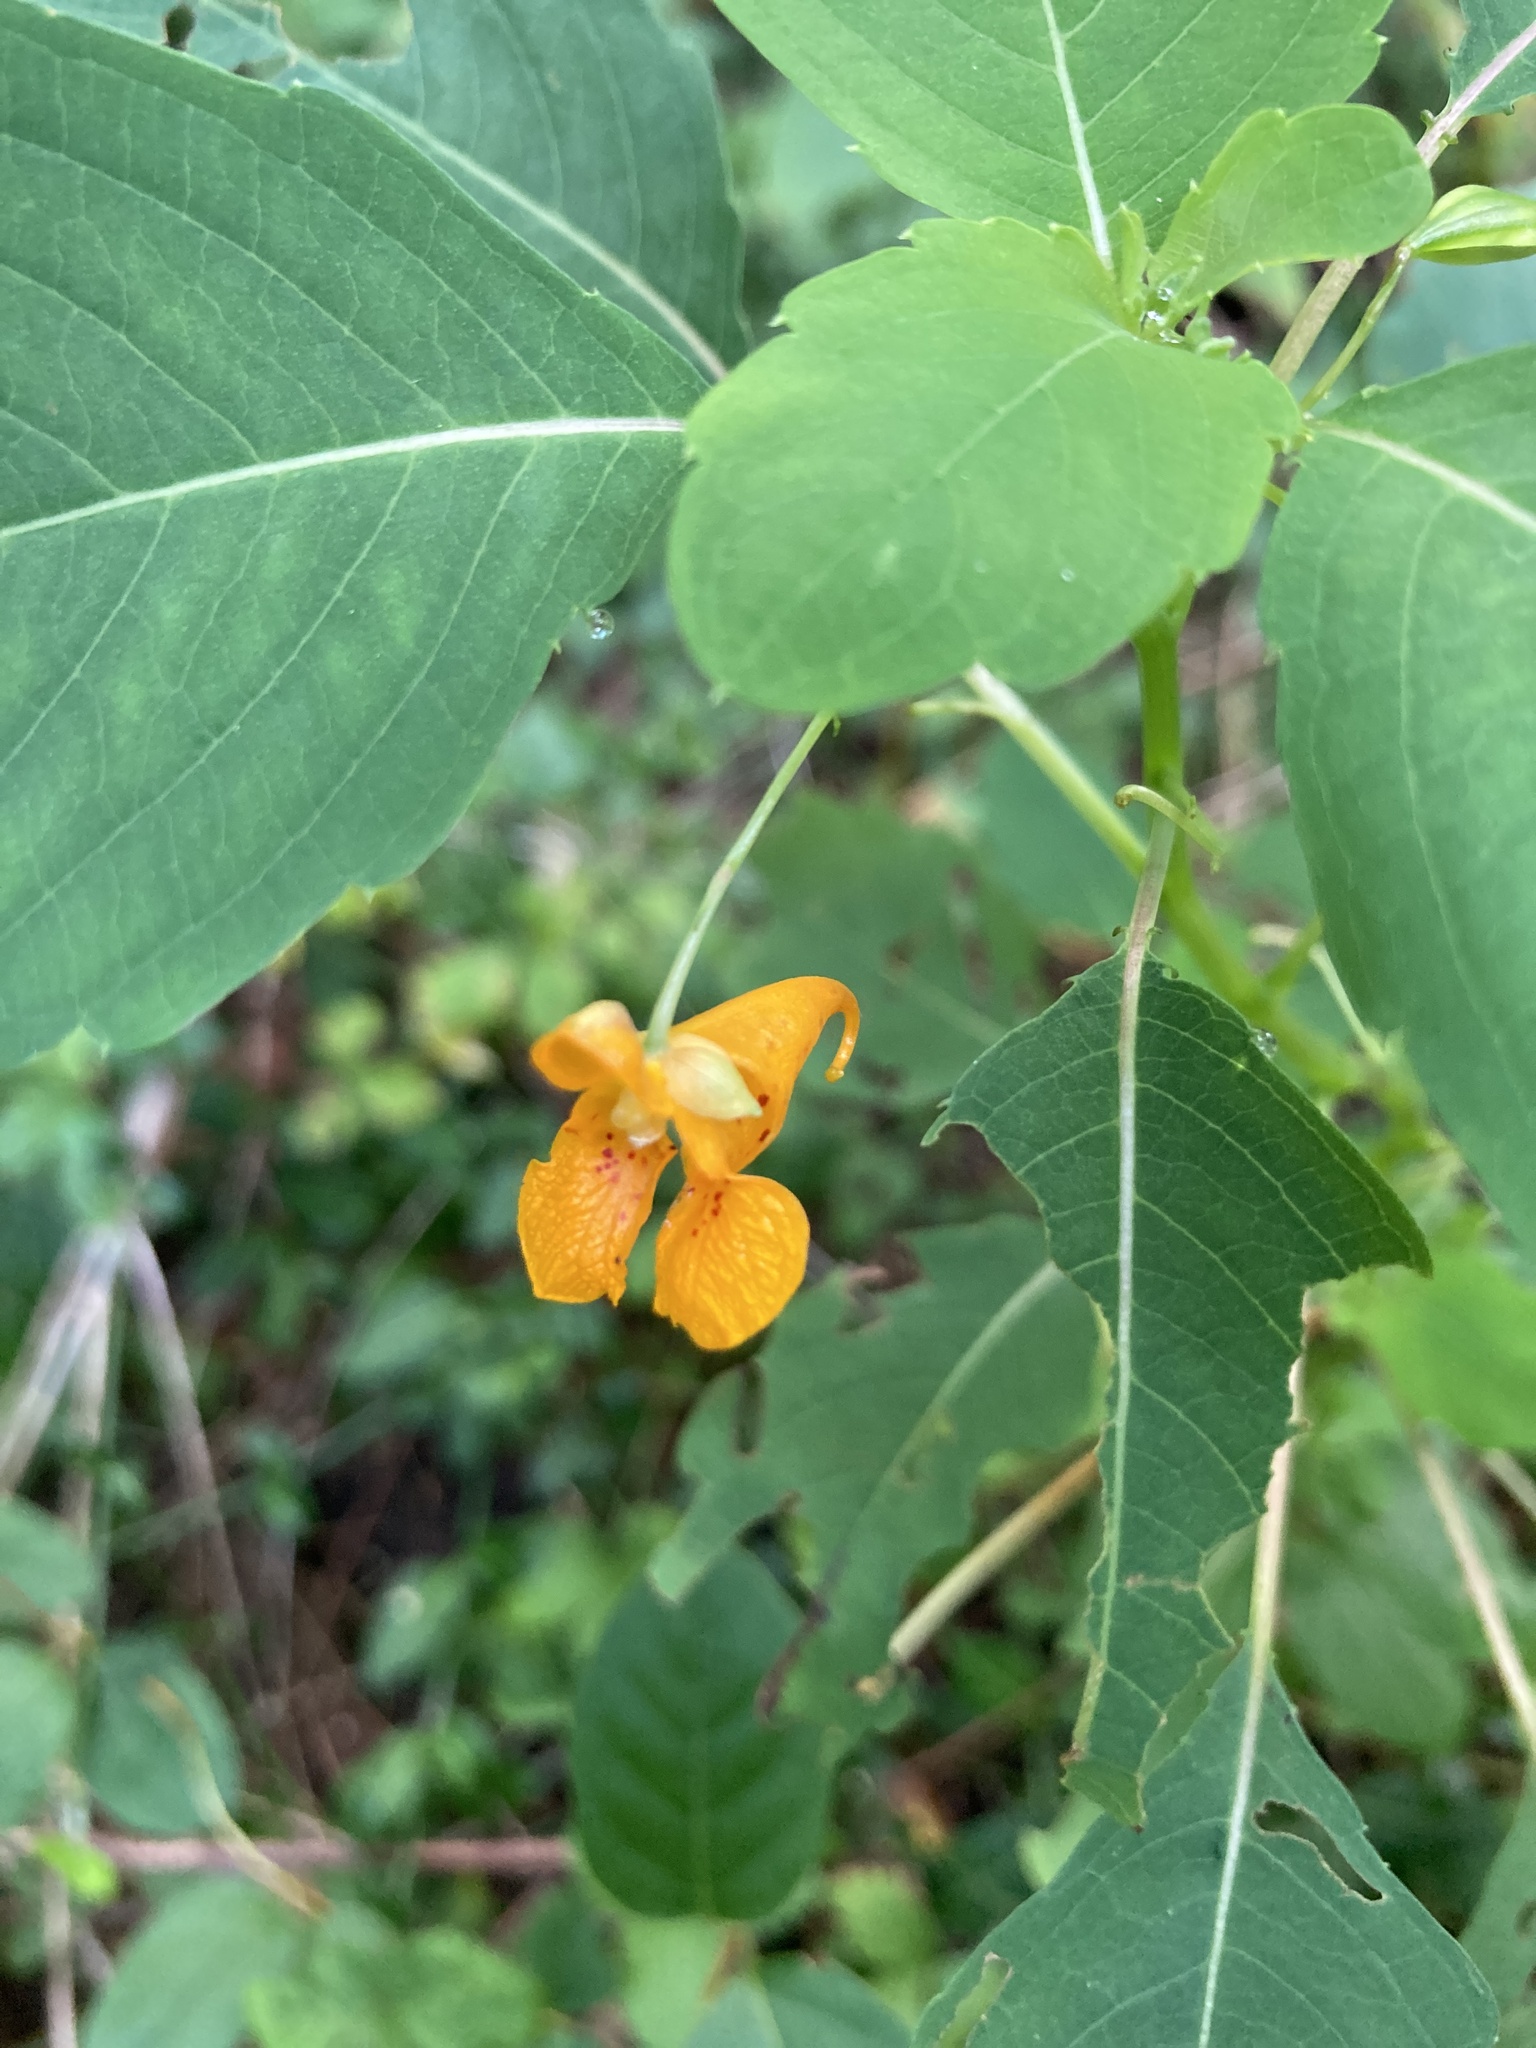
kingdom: Plantae
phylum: Tracheophyta
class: Magnoliopsida
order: Ericales
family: Balsaminaceae
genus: Impatiens
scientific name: Impatiens capensis
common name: Orange balsam
